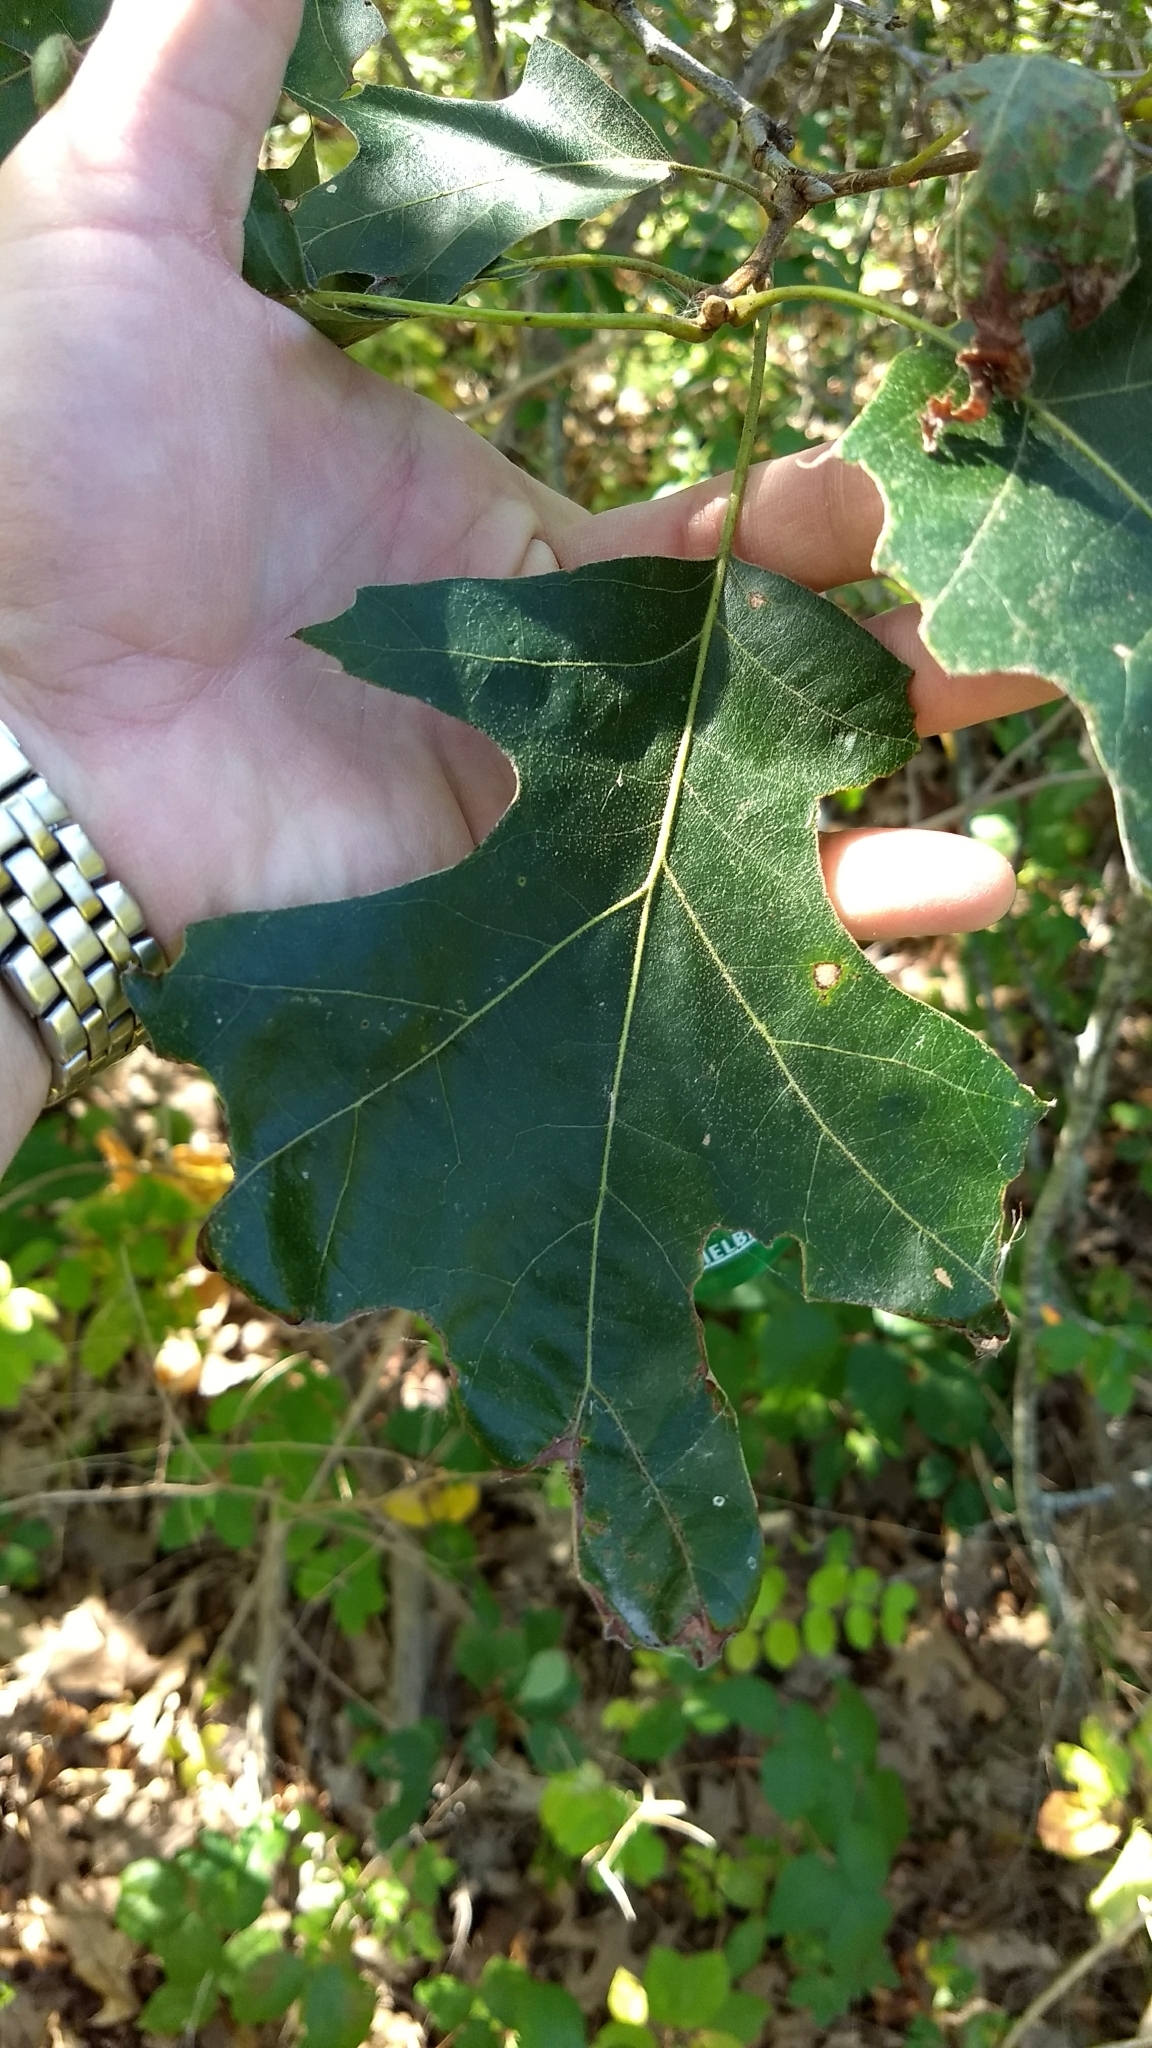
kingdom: Plantae
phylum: Tracheophyta
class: Magnoliopsida
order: Fagales
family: Fagaceae
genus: Quercus
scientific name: Quercus velutina
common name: Black oak
